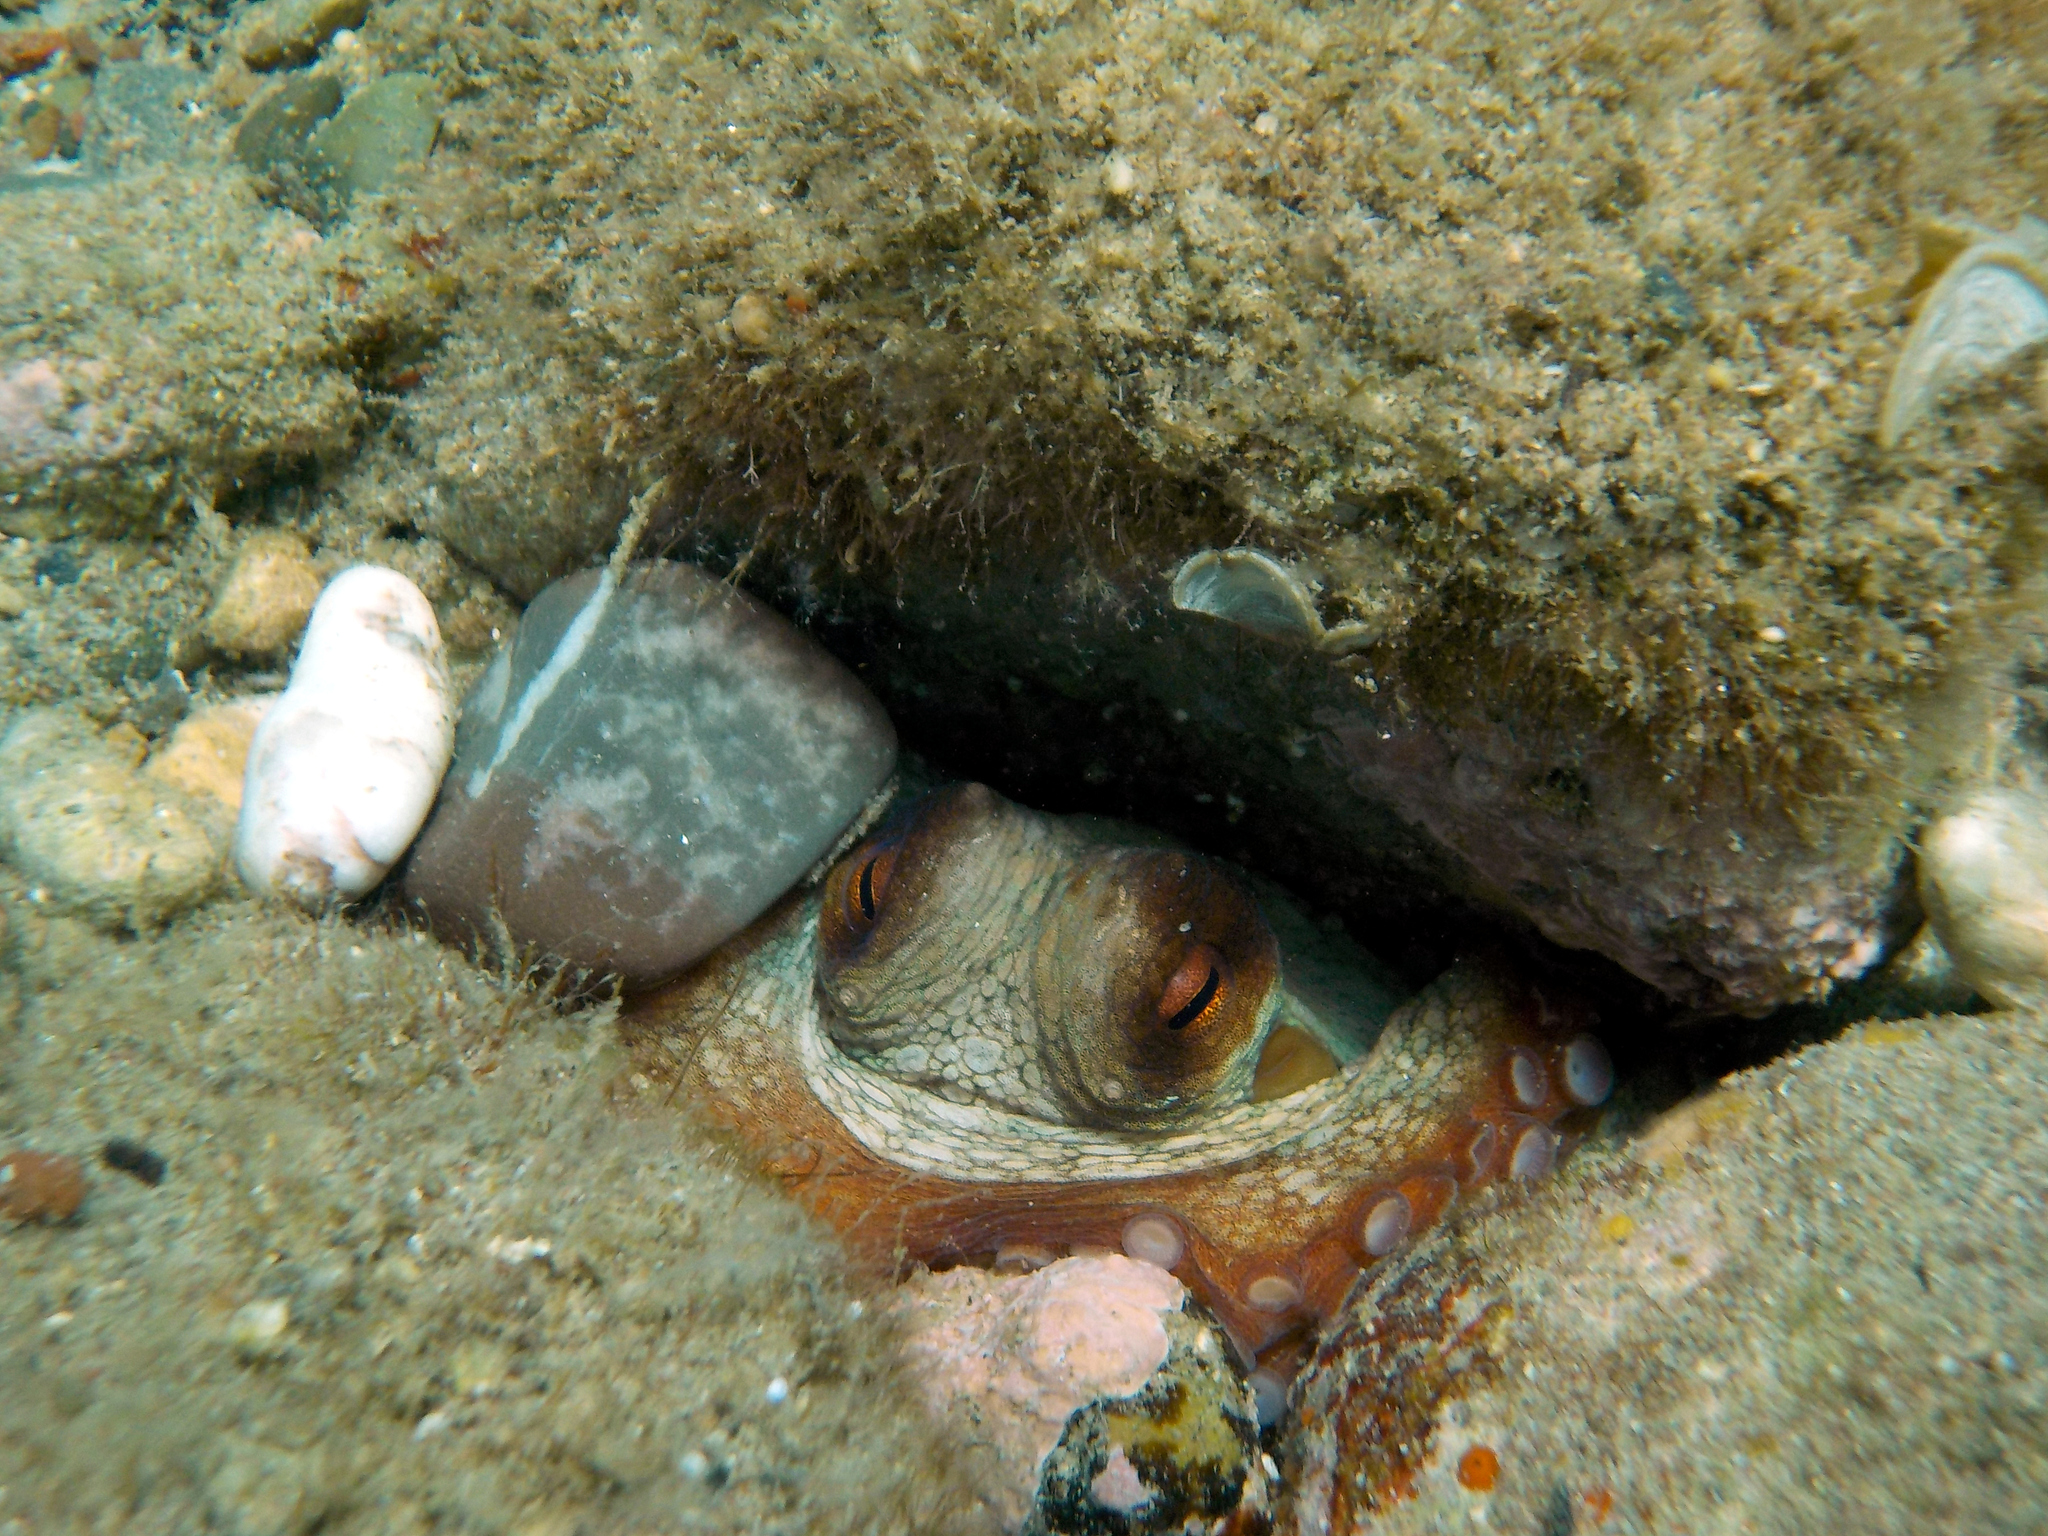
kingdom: Animalia
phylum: Mollusca
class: Cephalopoda
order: Octopoda
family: Octopodidae
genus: Octopus
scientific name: Octopus vulgaris
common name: Common octopus
